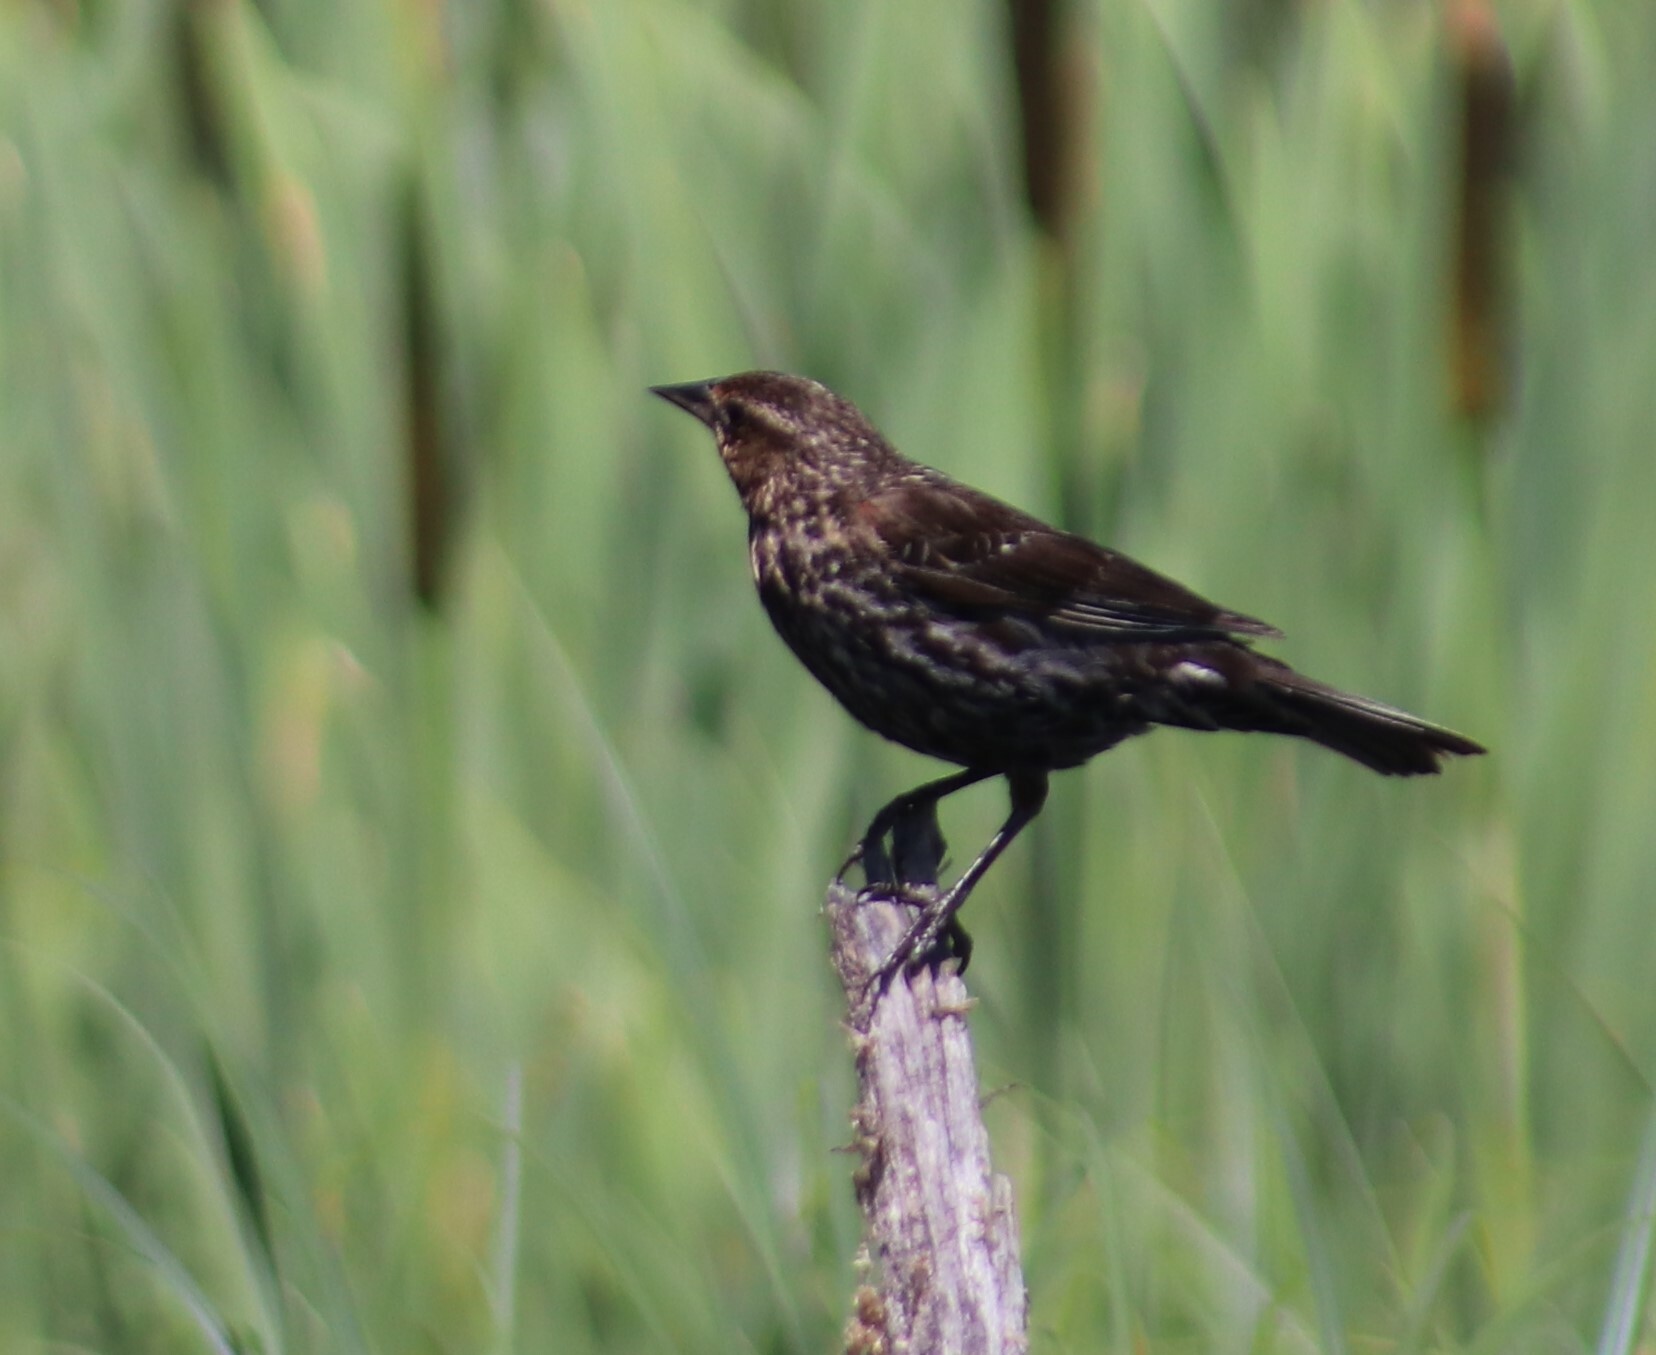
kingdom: Animalia
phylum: Chordata
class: Aves
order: Passeriformes
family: Icteridae
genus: Agelaius
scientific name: Agelaius phoeniceus
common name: Red-winged blackbird
